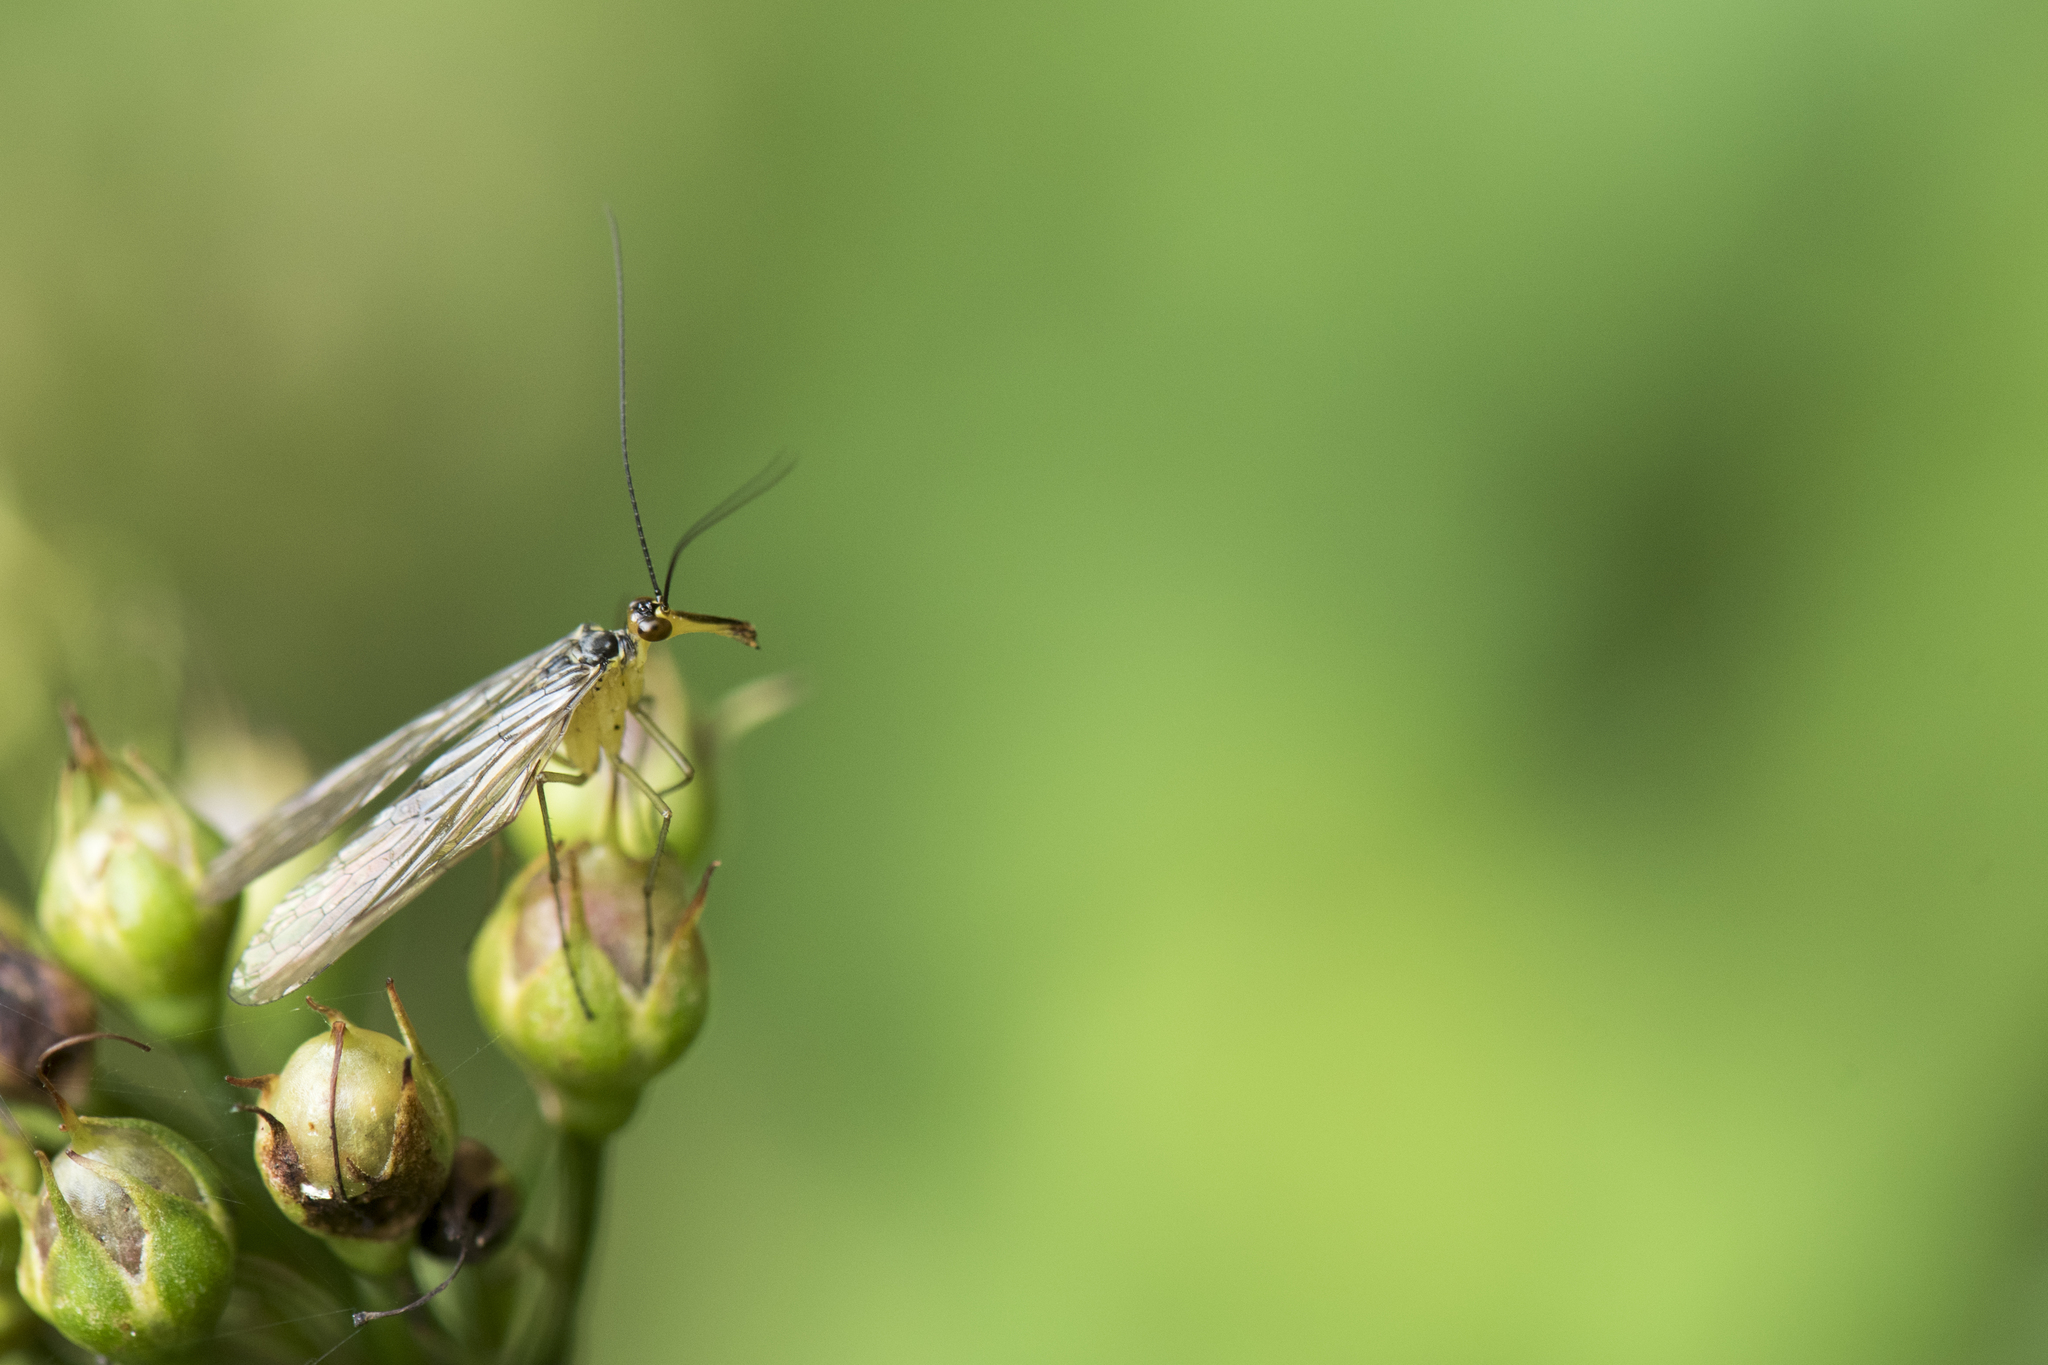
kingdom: Animalia
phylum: Arthropoda
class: Insecta
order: Mecoptera
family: Panorpidae
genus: Panorpa
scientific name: Panorpa esakii
